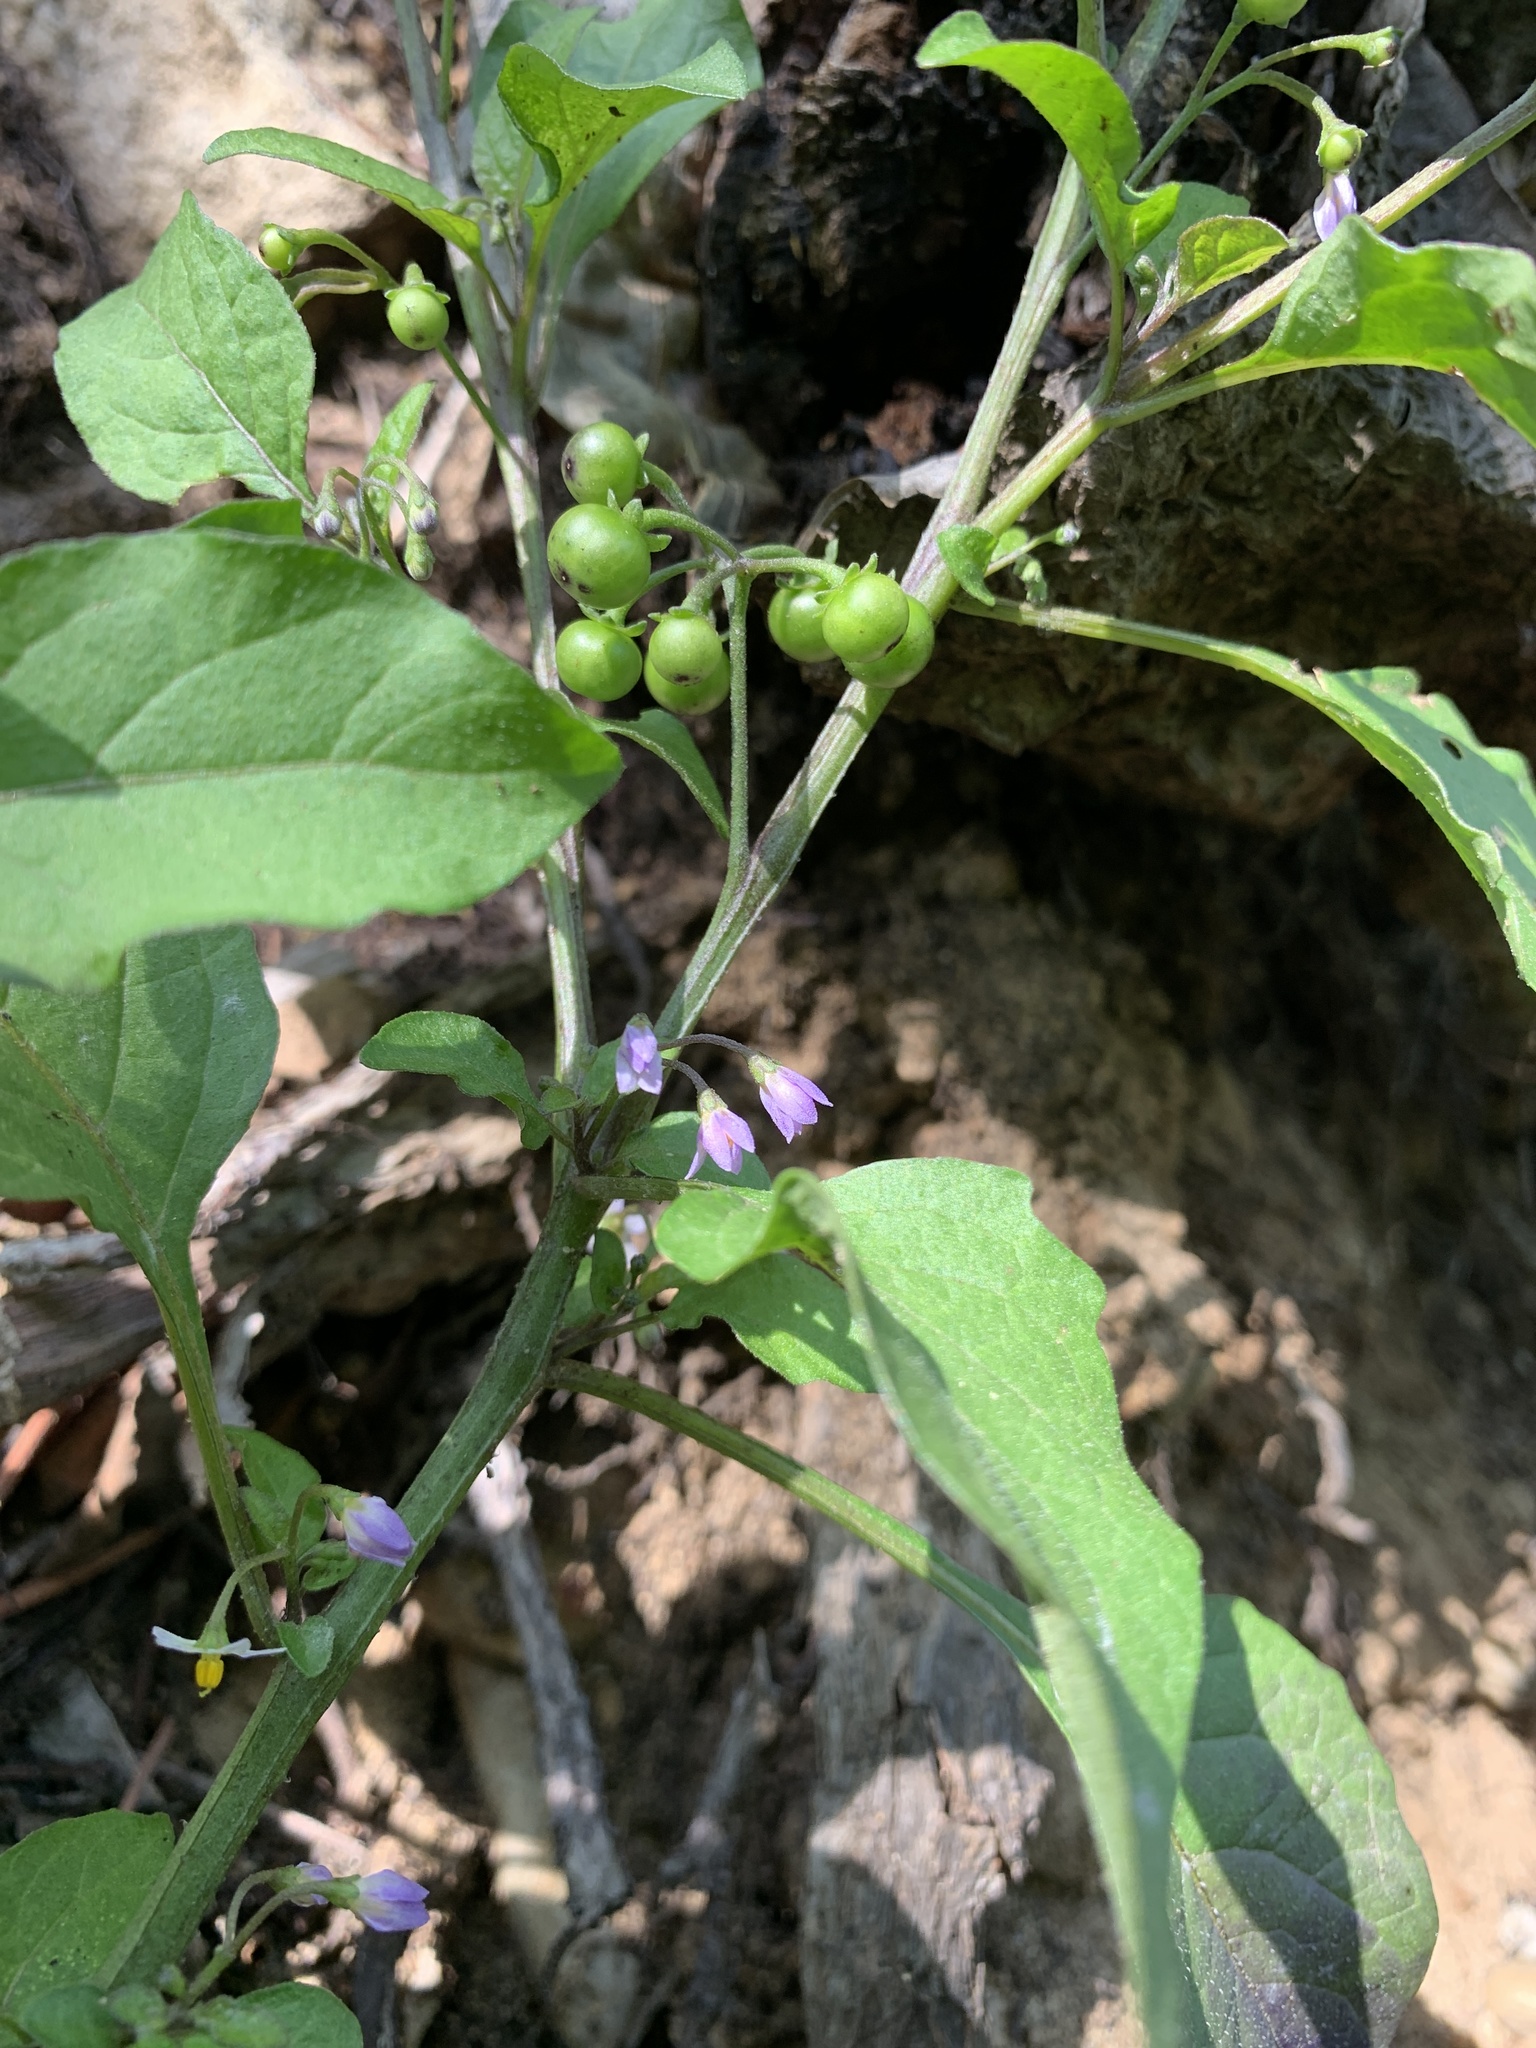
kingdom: Plantae
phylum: Tracheophyta
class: Magnoliopsida
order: Solanales
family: Solanaceae
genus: Solanum
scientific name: Solanum americanum
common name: American black nightshade
